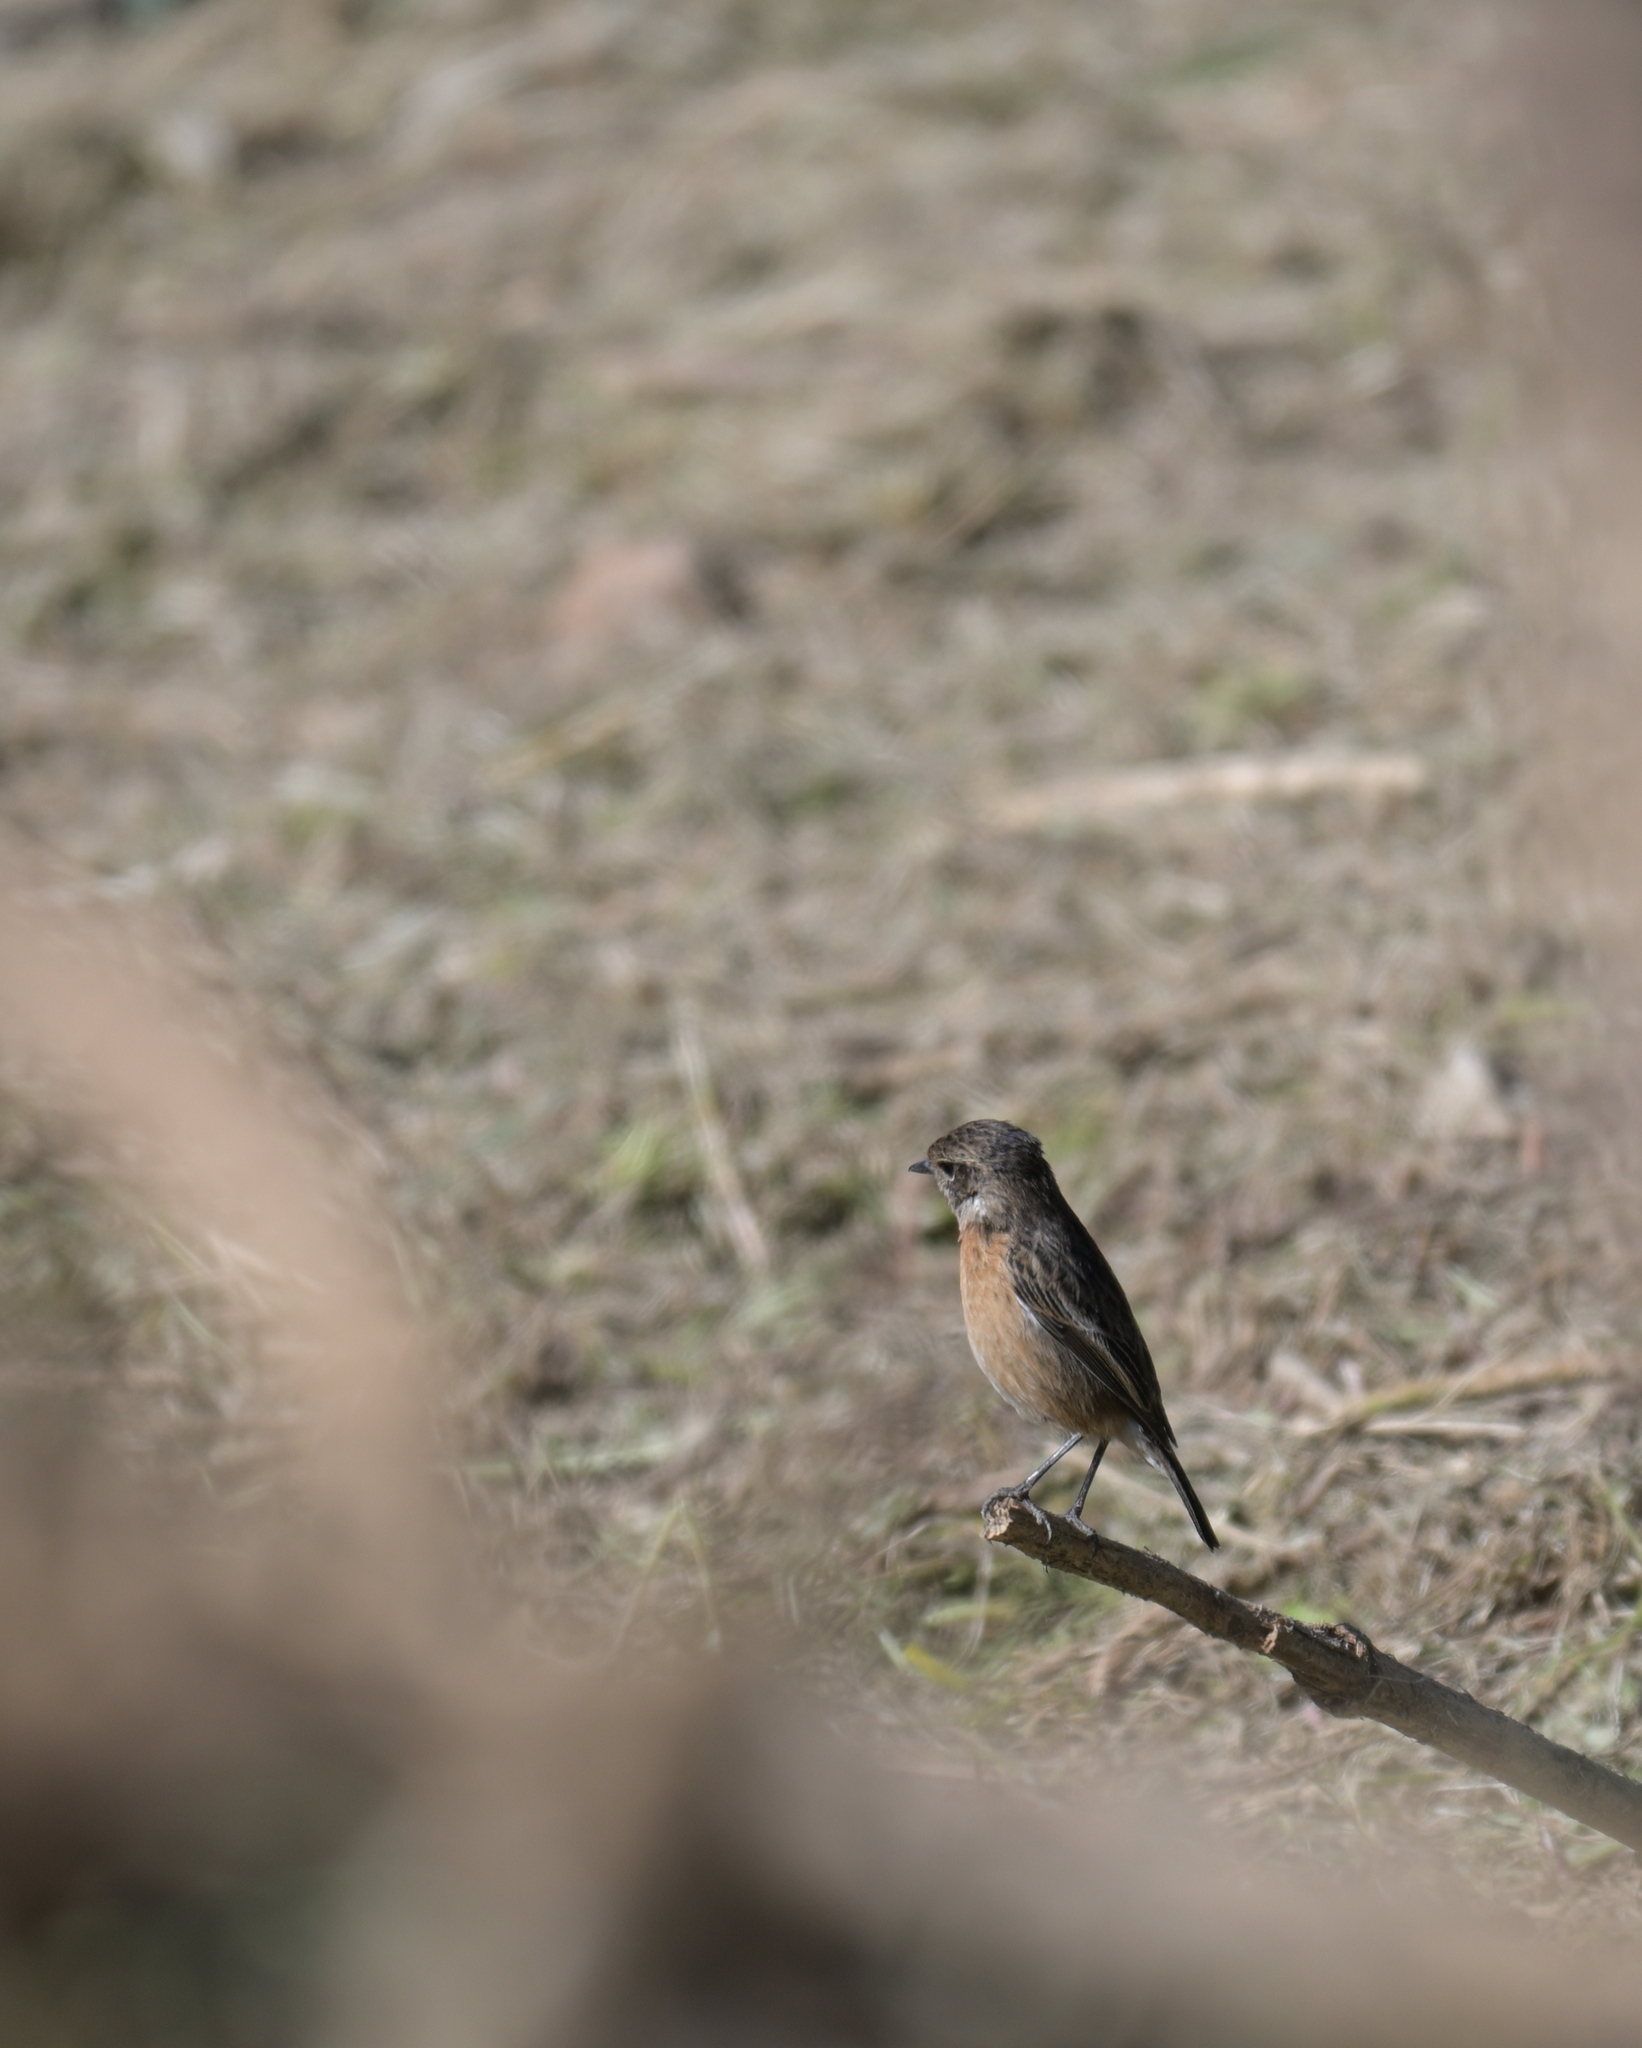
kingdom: Animalia
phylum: Chordata
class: Aves
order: Passeriformes
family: Muscicapidae
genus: Saxicola
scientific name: Saxicola rubicola
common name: European stonechat
